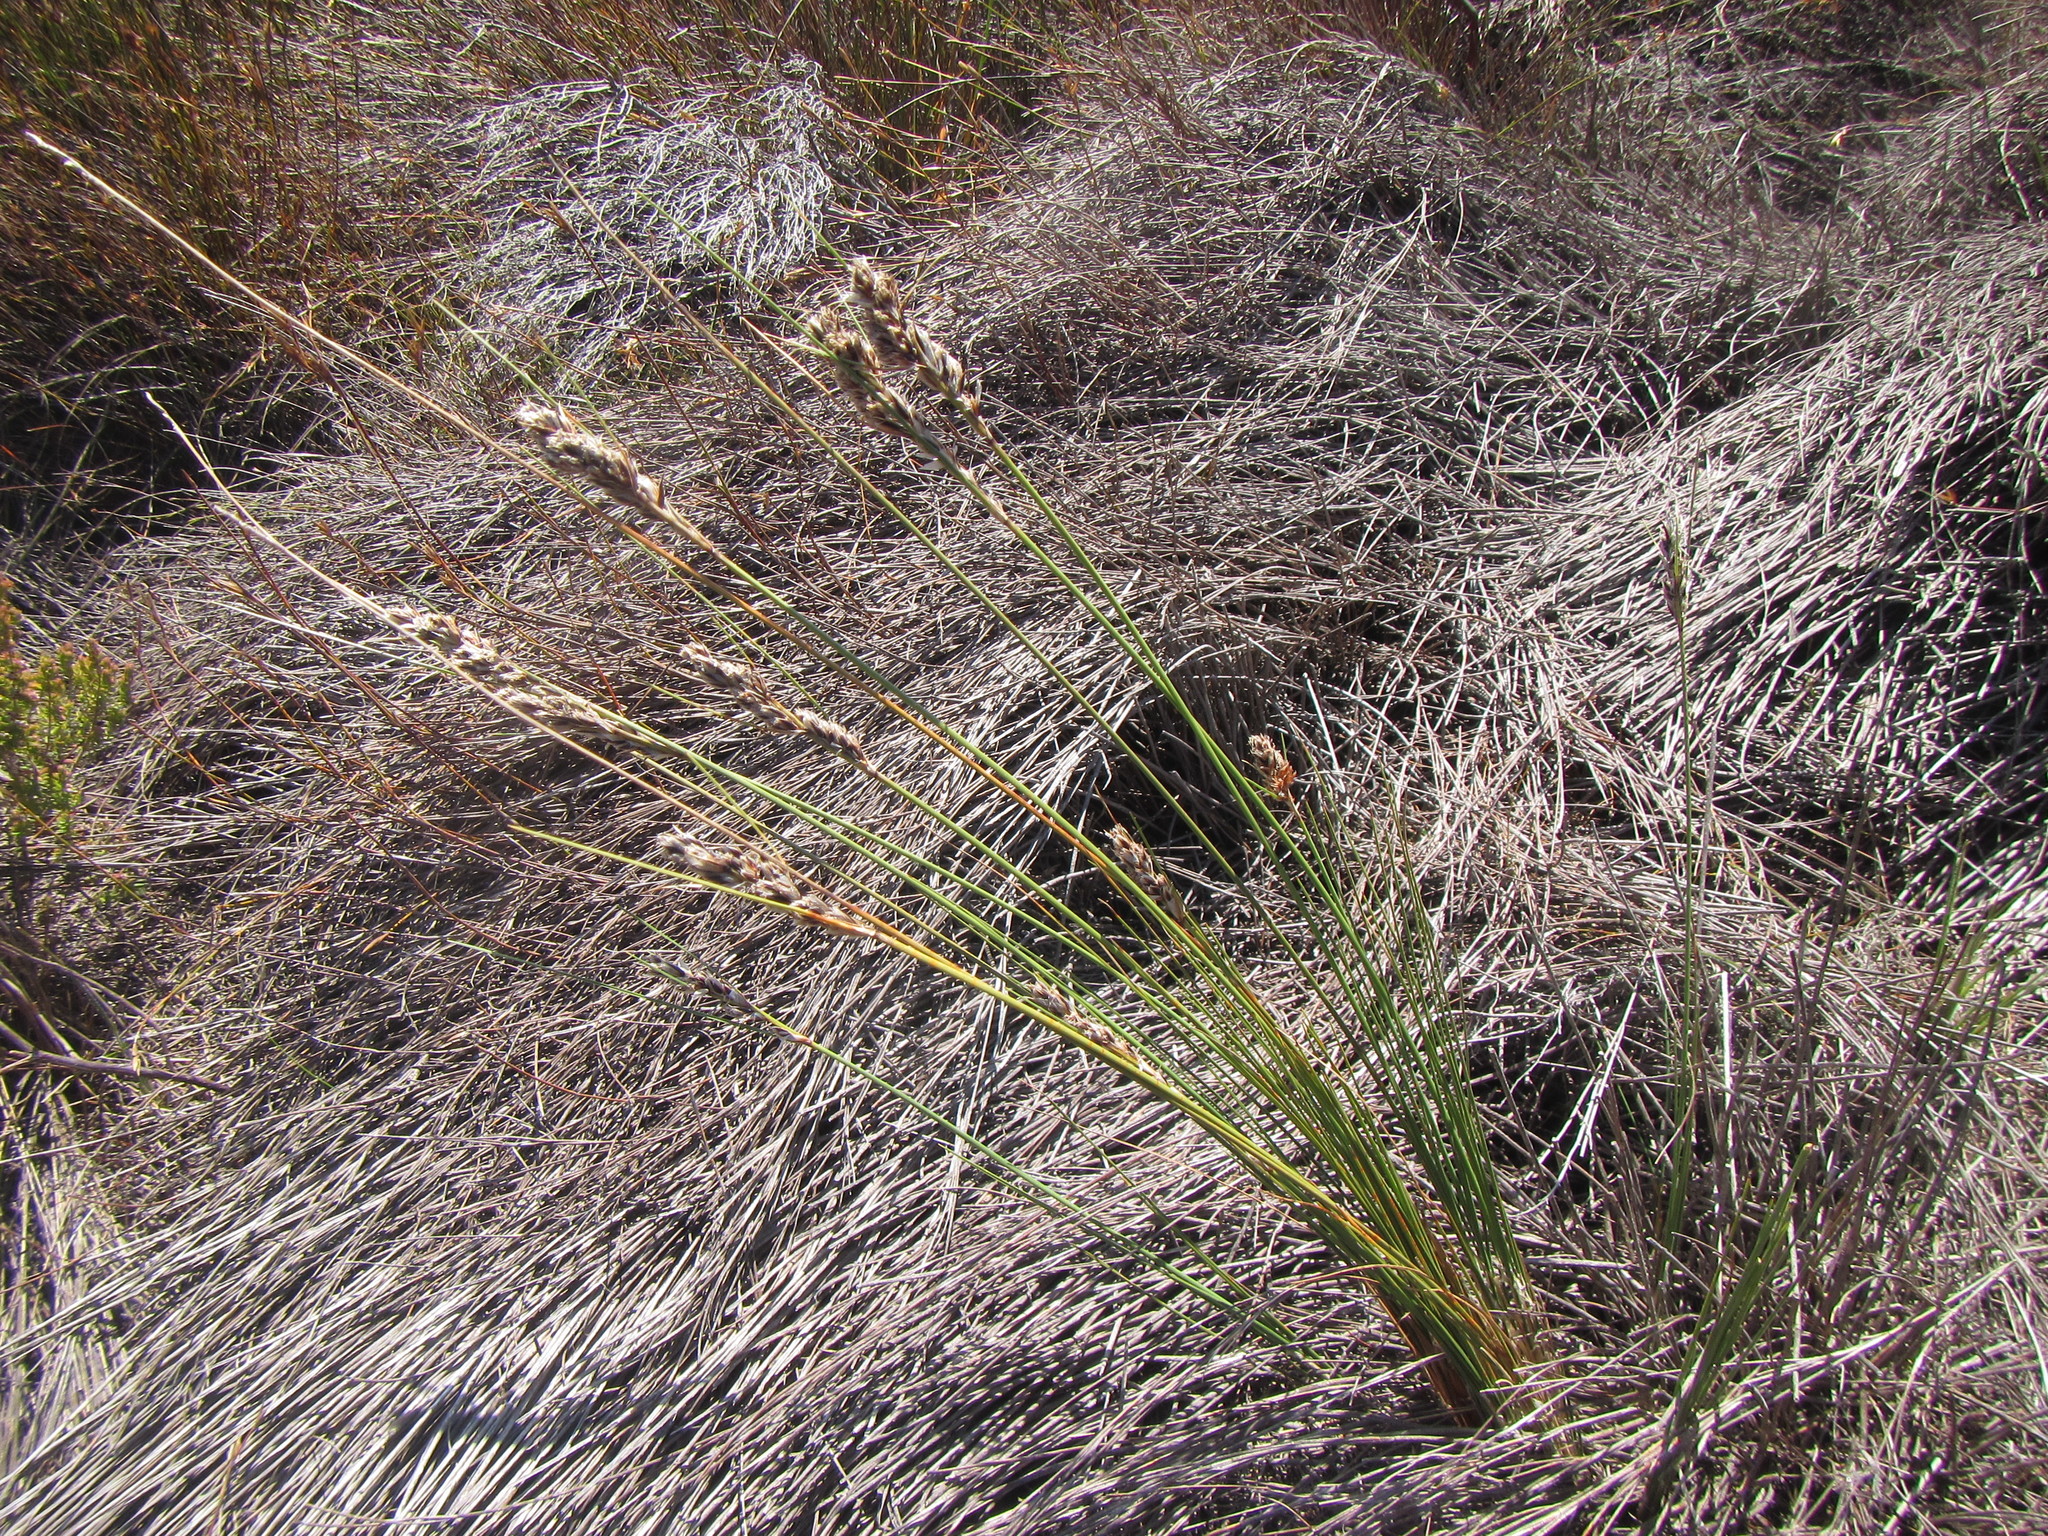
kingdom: Plantae
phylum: Tracheophyta
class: Liliopsida
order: Poales
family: Cyperaceae
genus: Ficinia
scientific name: Ficinia monticola
